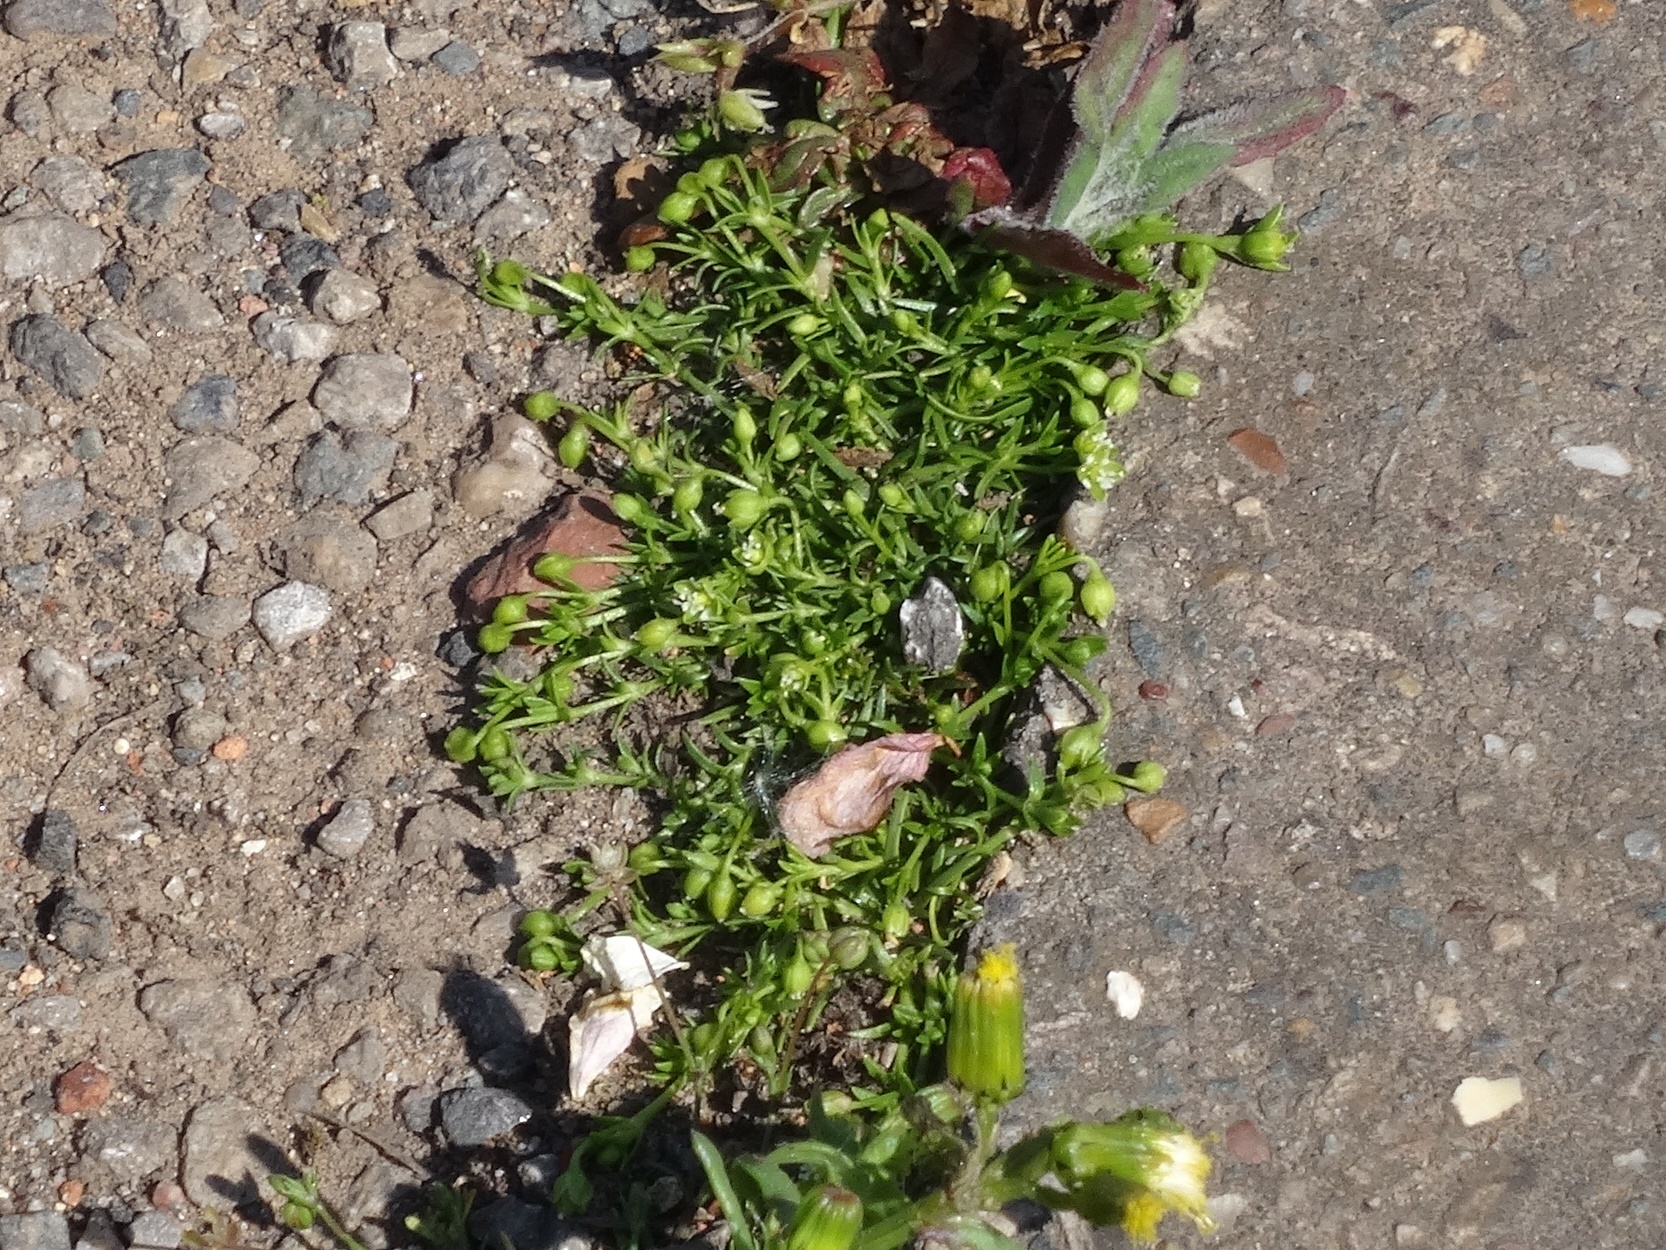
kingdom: Plantae
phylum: Tracheophyta
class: Magnoliopsida
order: Caryophyllales
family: Caryophyllaceae
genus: Sagina
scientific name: Sagina procumbens
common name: Procumbent pearlwort
